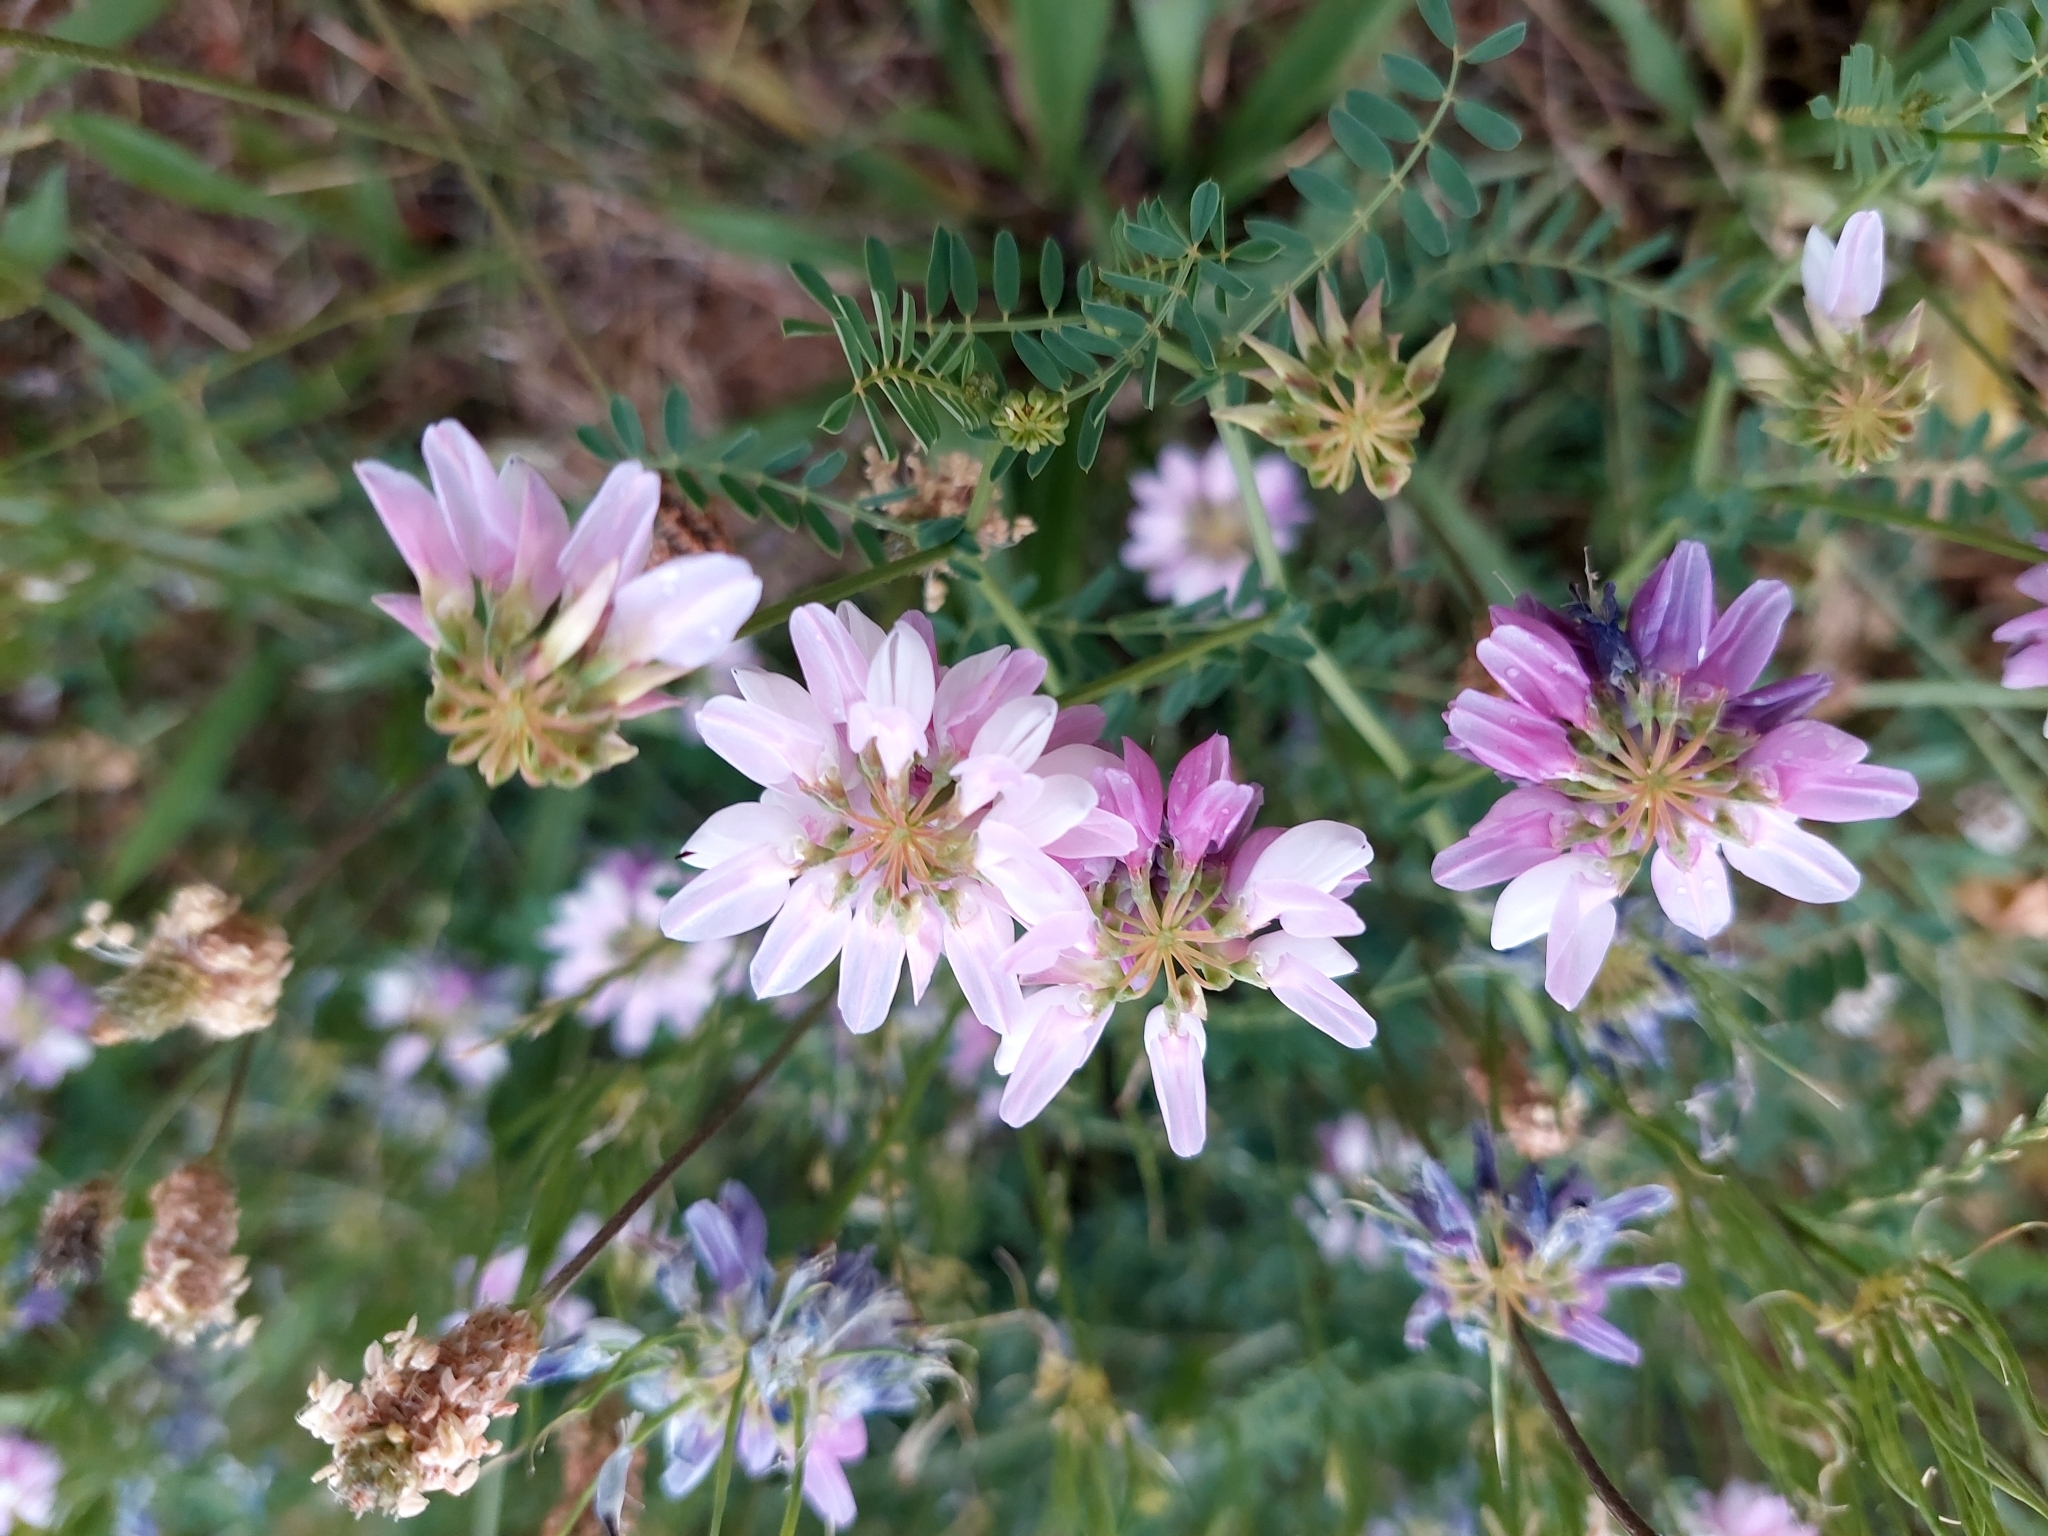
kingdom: Plantae
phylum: Tracheophyta
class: Magnoliopsida
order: Fabales
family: Fabaceae
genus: Coronilla
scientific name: Coronilla varia
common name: Crownvetch
